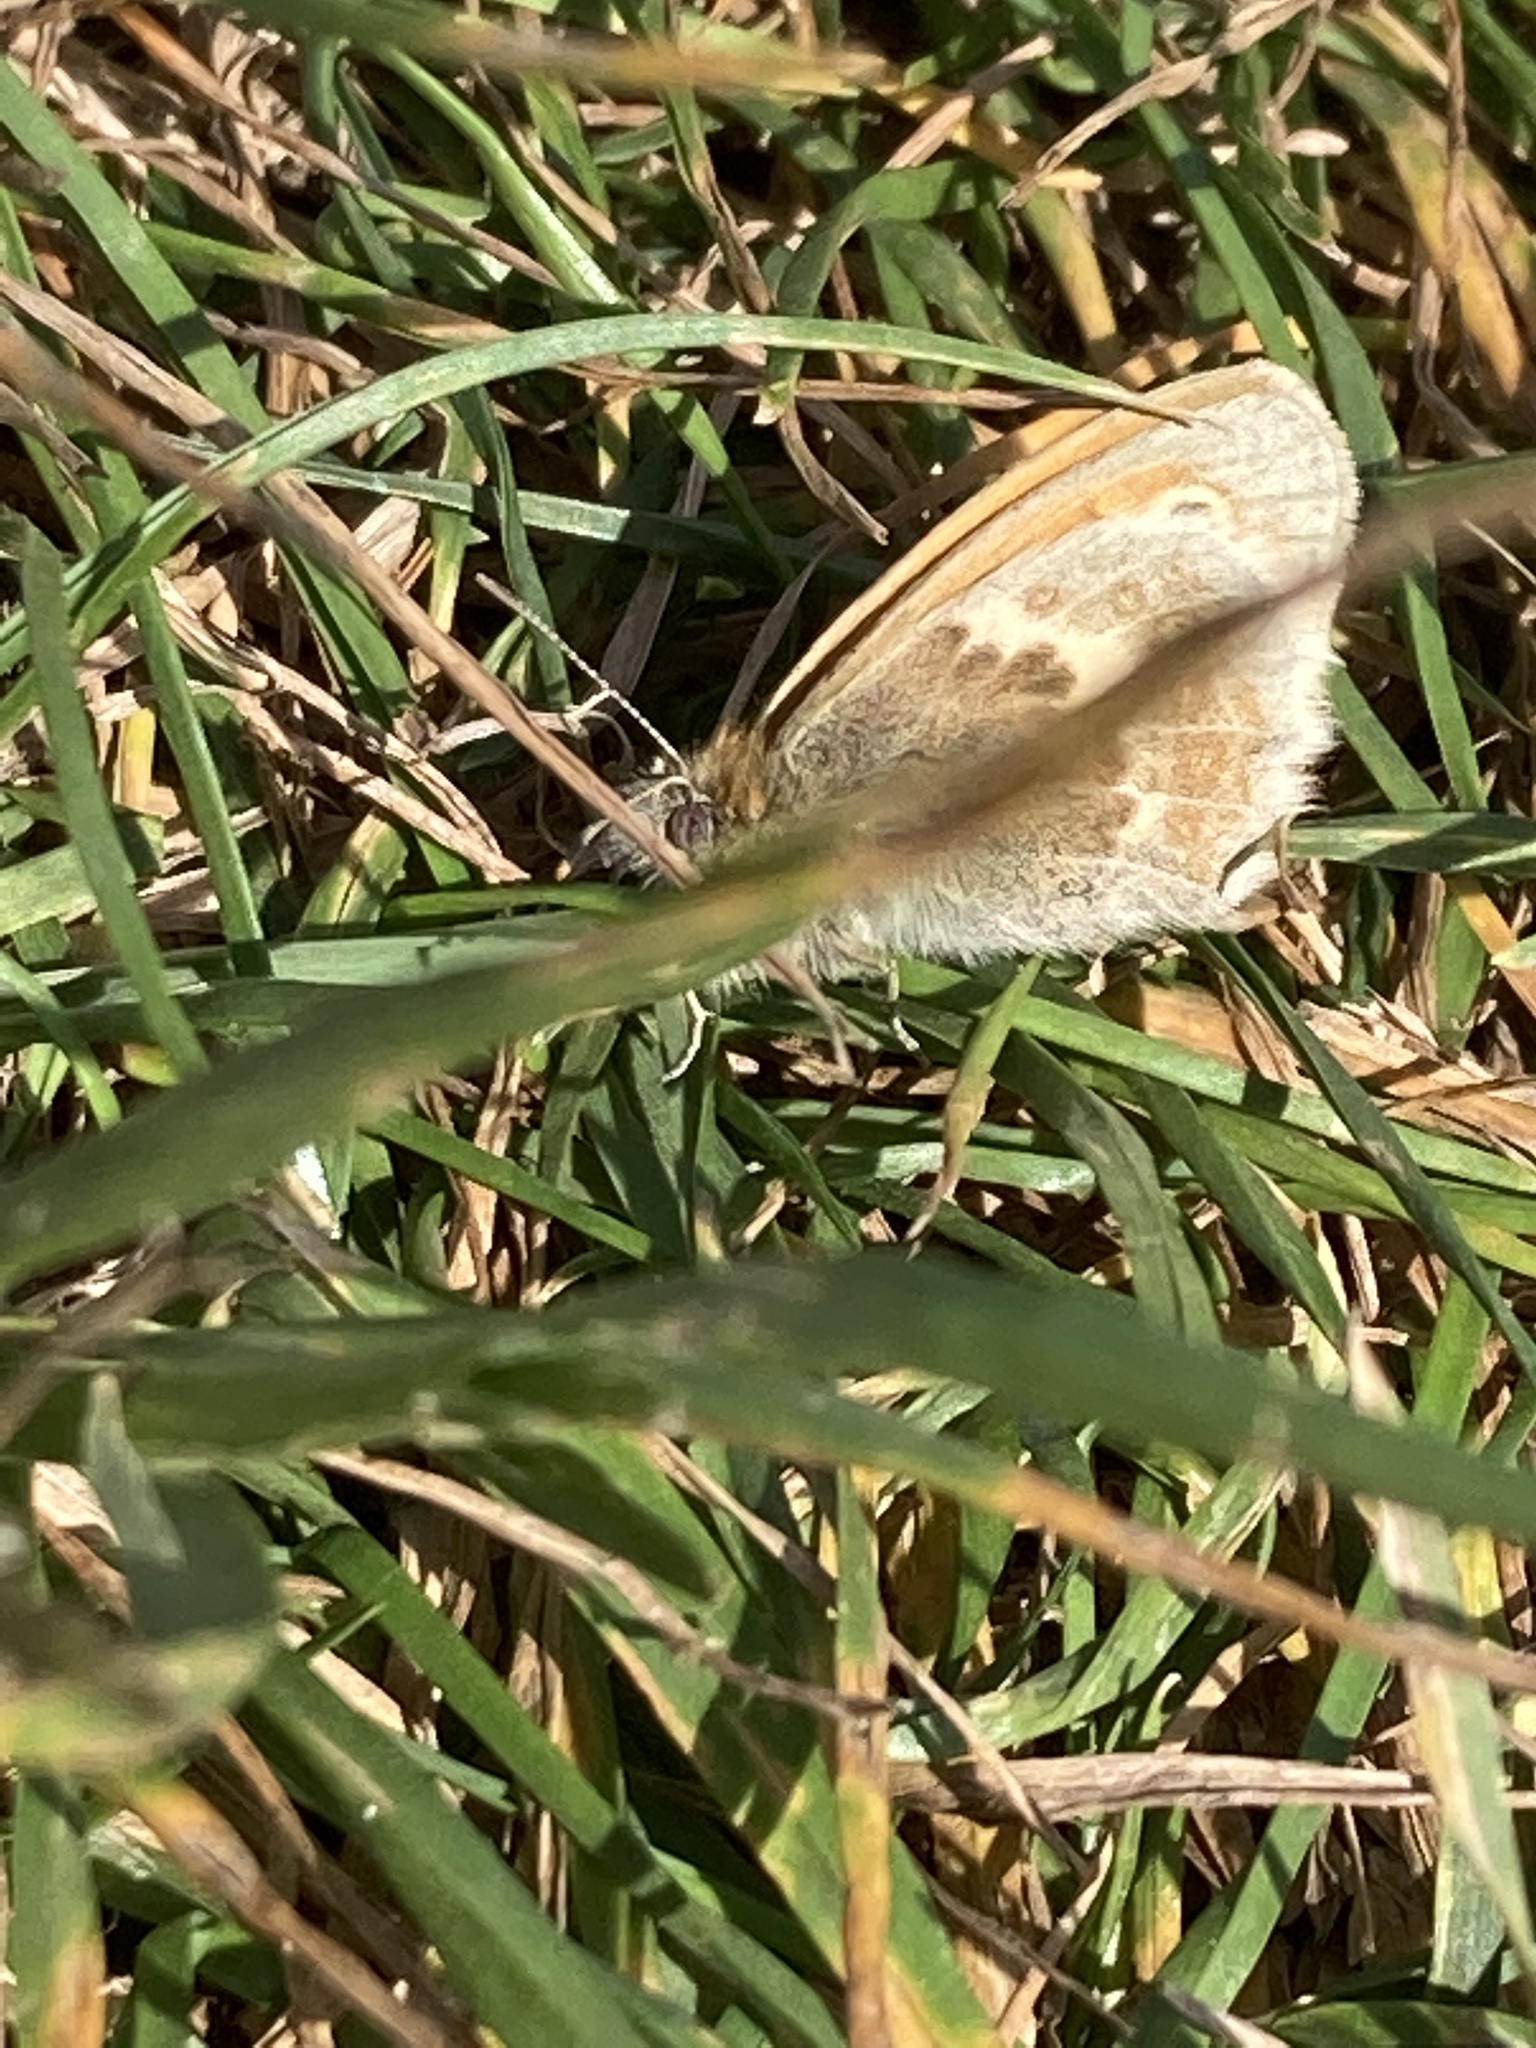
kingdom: Animalia
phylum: Arthropoda
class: Insecta
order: Lepidoptera
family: Nymphalidae
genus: Coenonympha
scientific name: Coenonympha pamphilus
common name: Small heath
